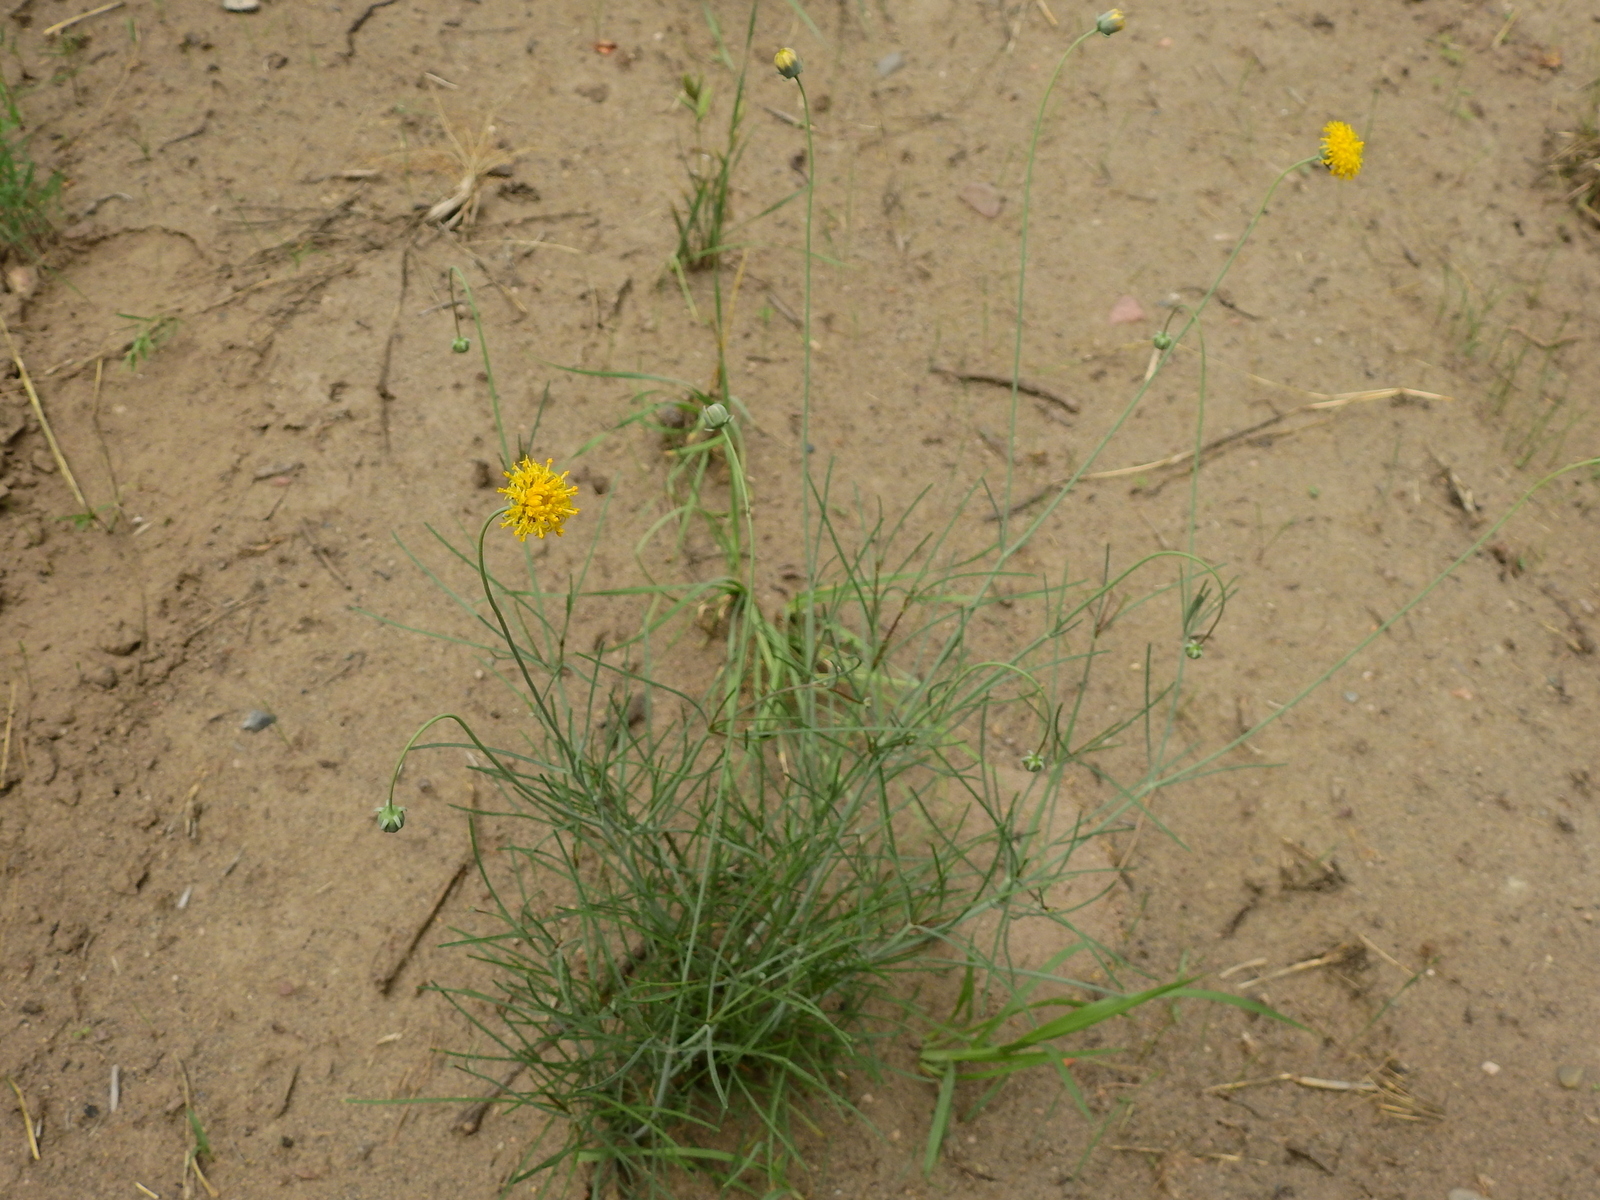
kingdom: Plantae
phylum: Tracheophyta
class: Magnoliopsida
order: Asterales
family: Asteraceae
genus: Thelesperma
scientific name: Thelesperma megapotamicum
